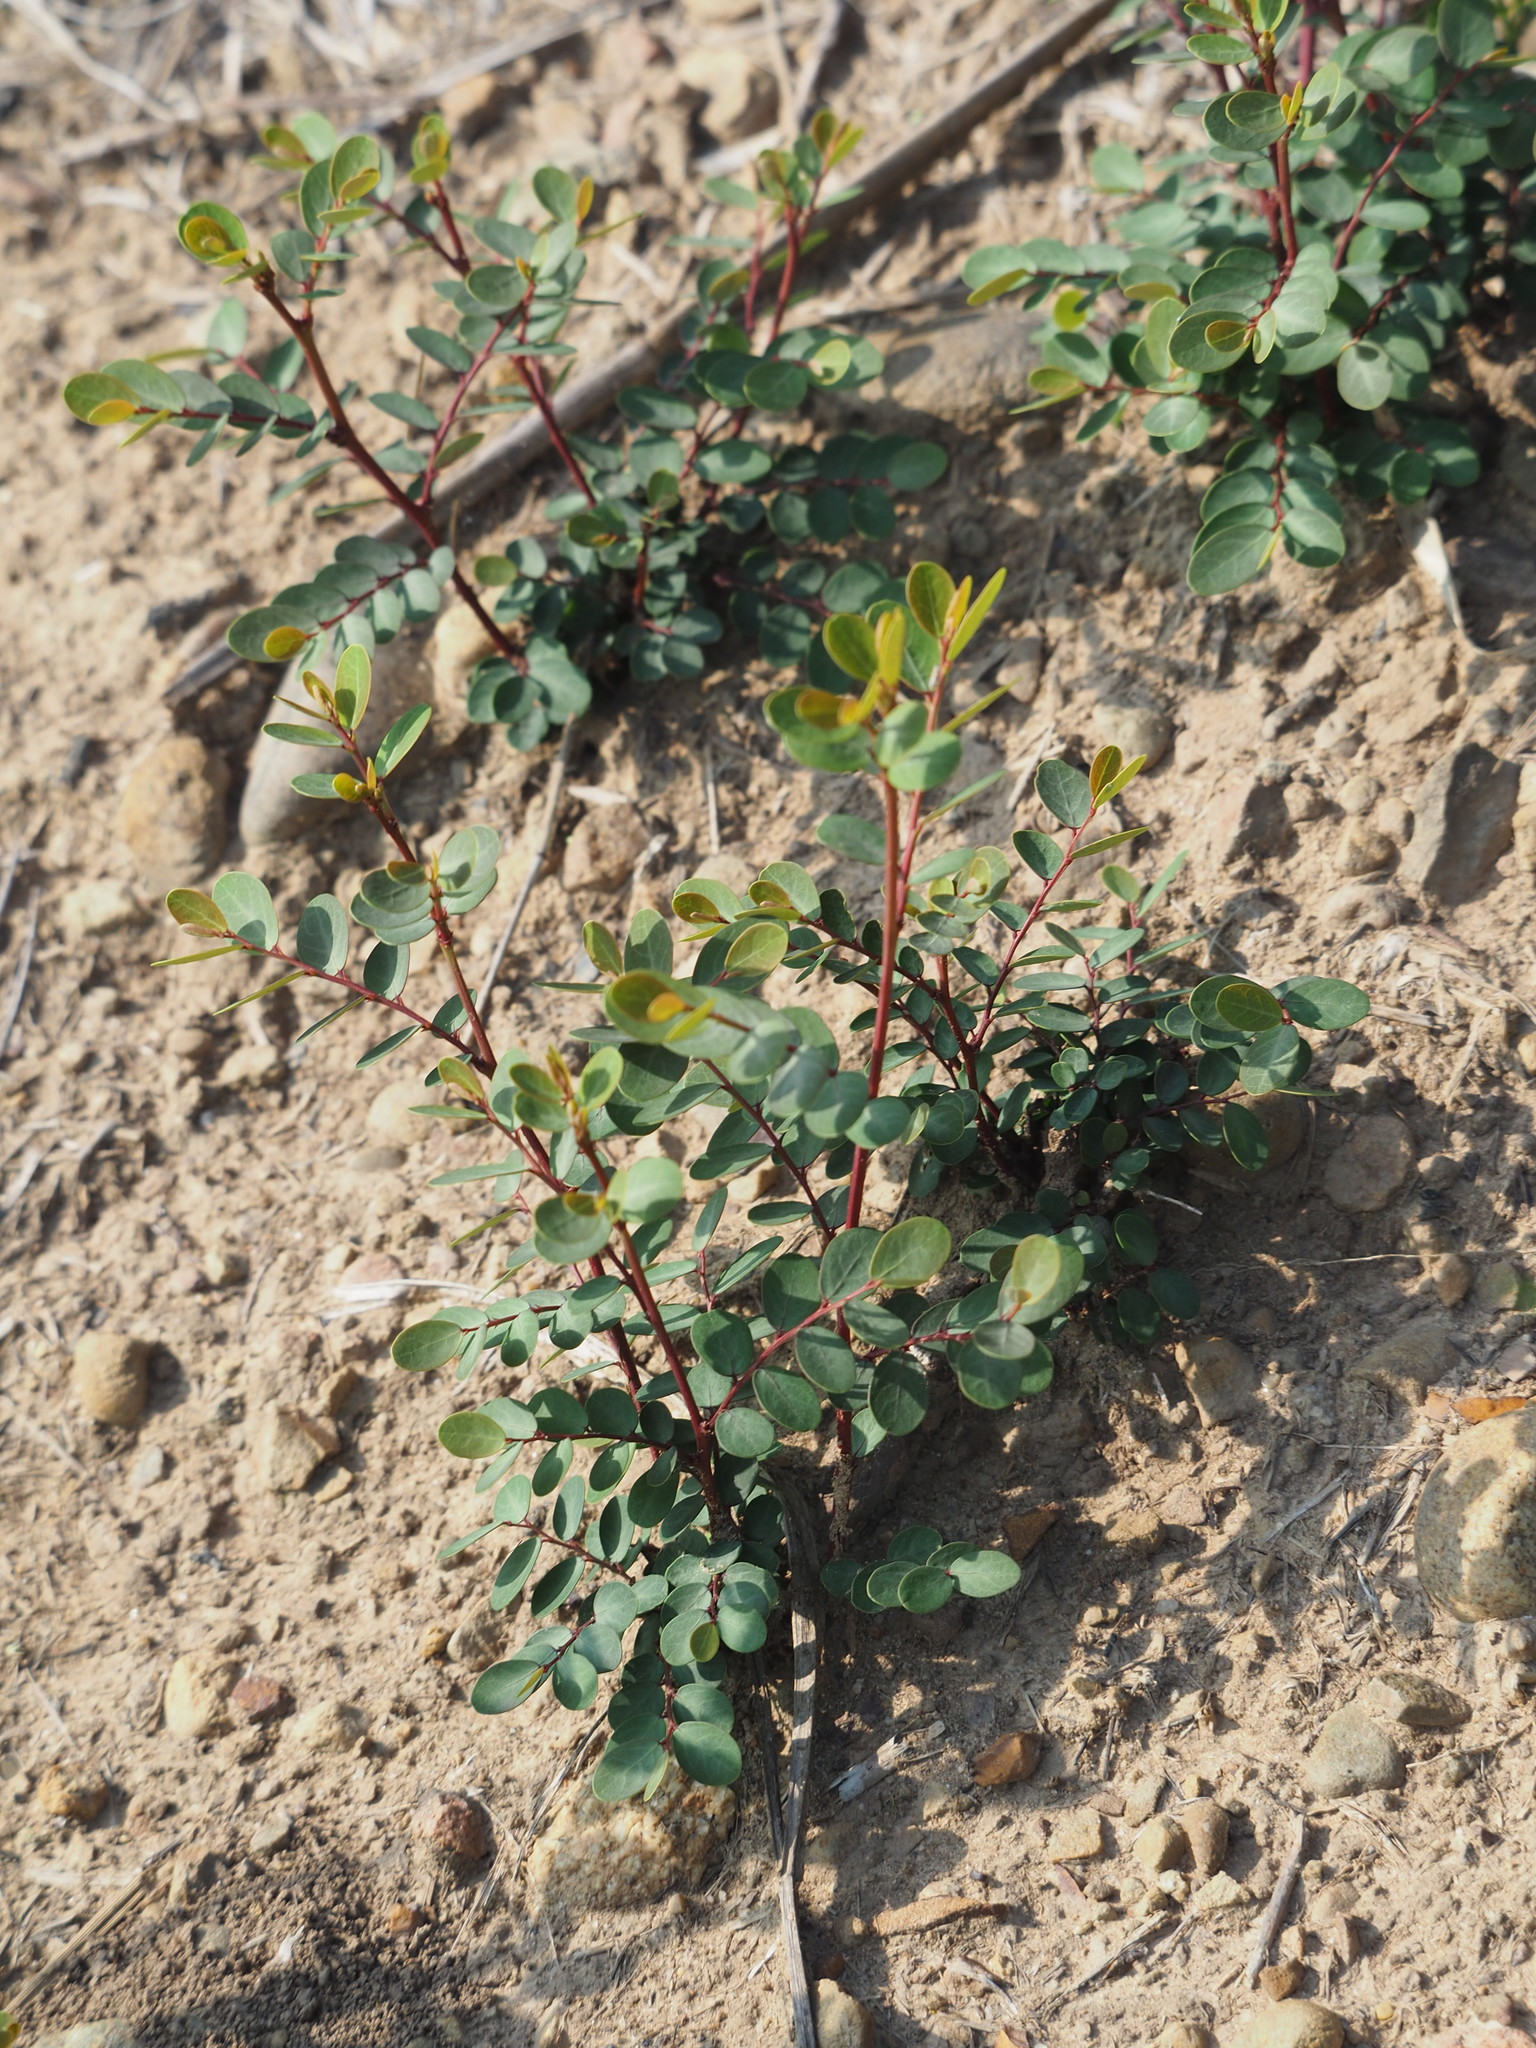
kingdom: Plantae
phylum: Tracheophyta
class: Magnoliopsida
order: Malpighiales
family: Phyllanthaceae
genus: Breynia
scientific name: Breynia vitis-idaea
